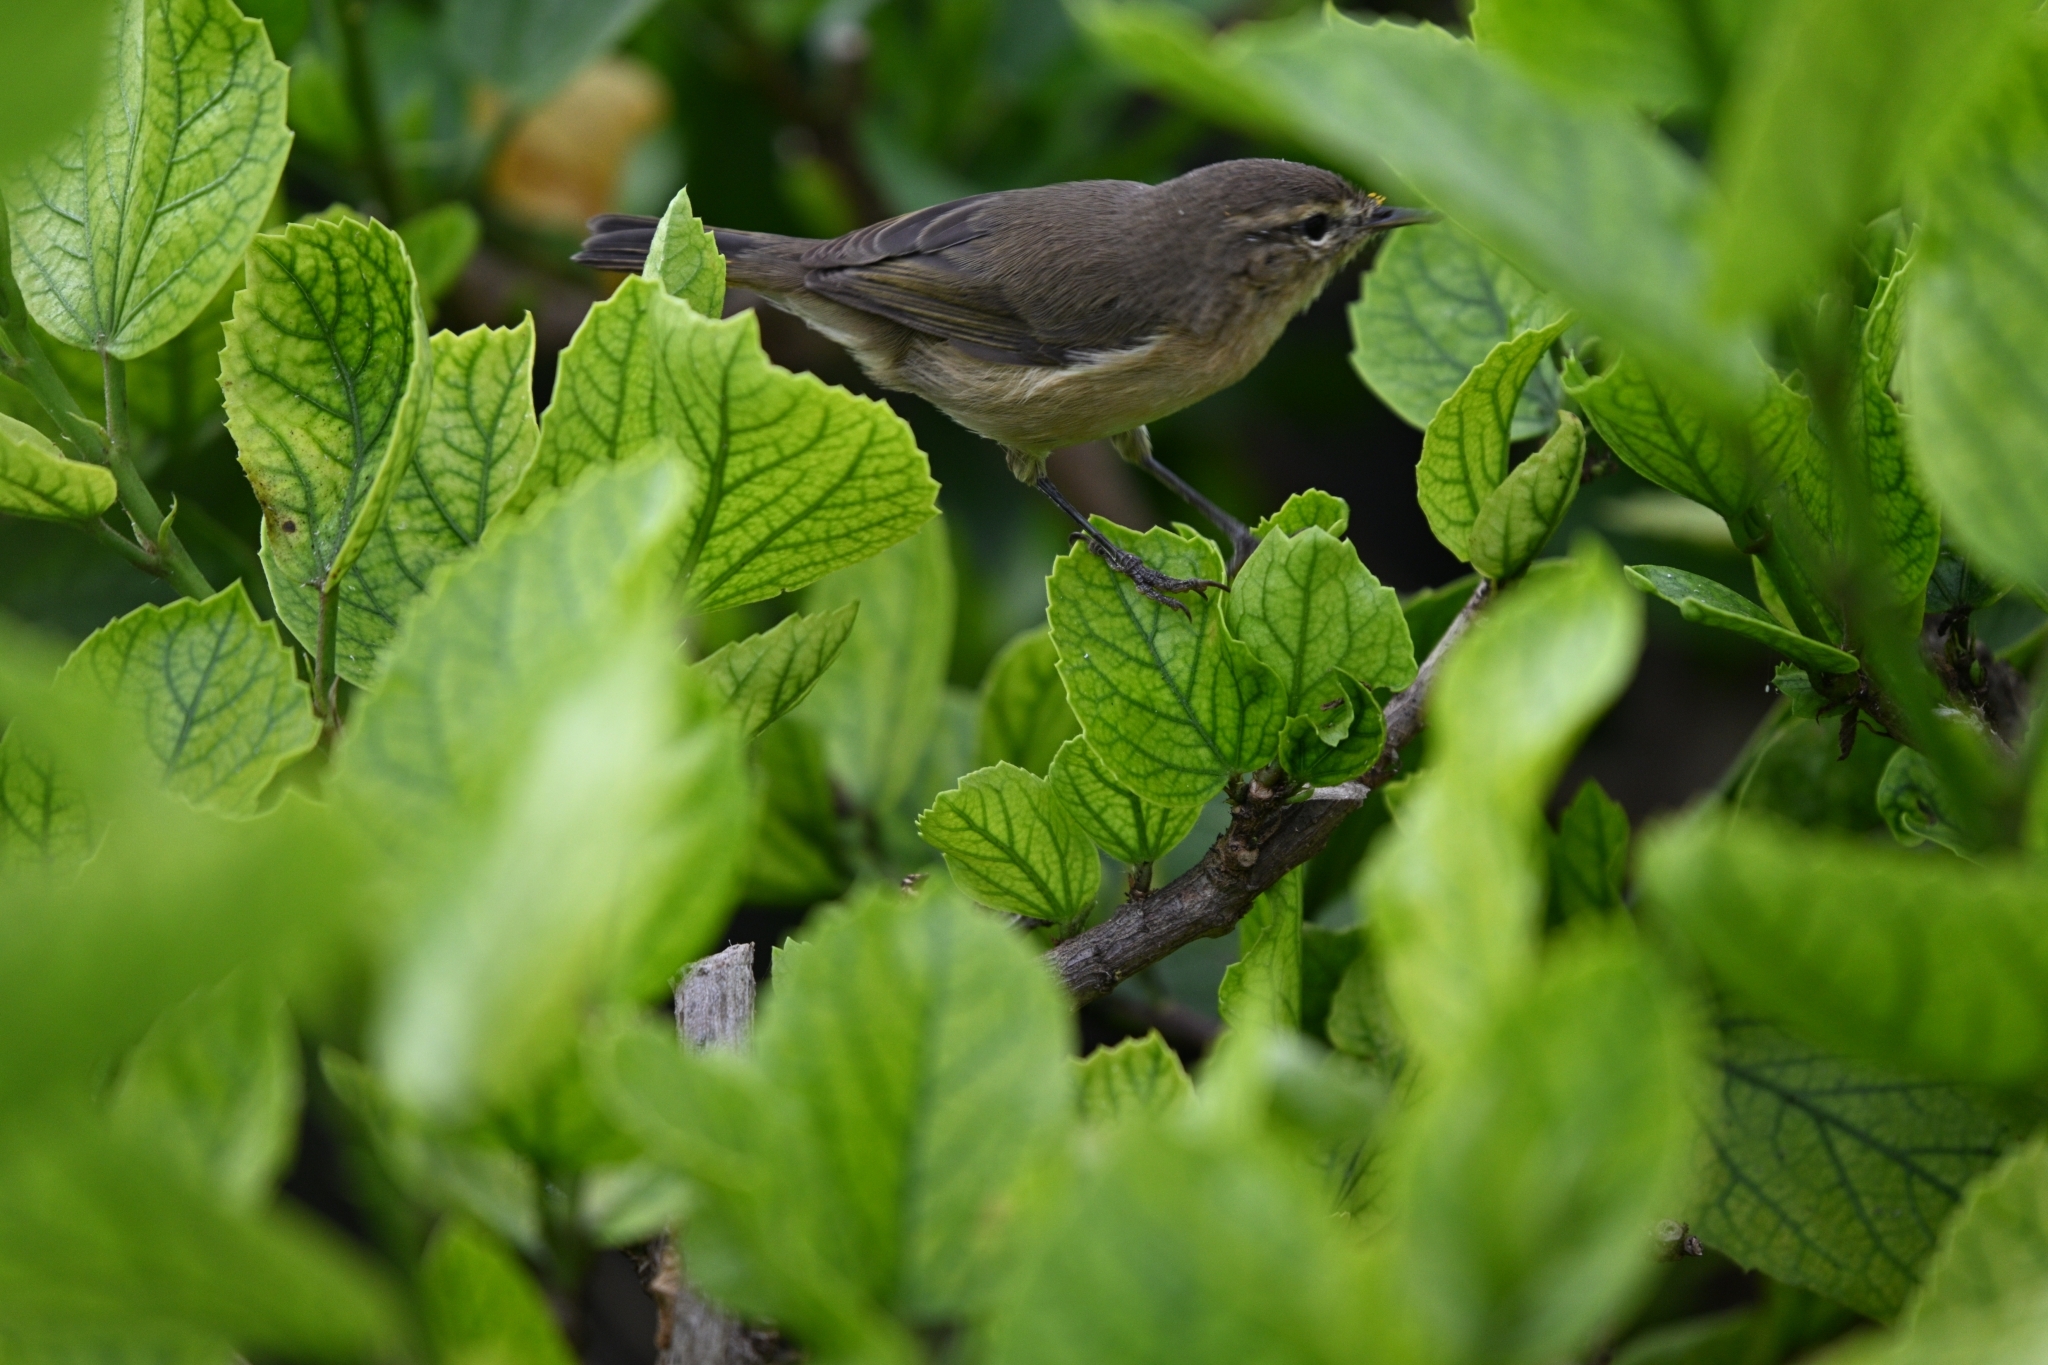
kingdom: Animalia
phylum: Chordata
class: Aves
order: Passeriformes
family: Phylloscopidae
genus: Phylloscopus
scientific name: Phylloscopus canariensis
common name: Canary islands chiffchaff
